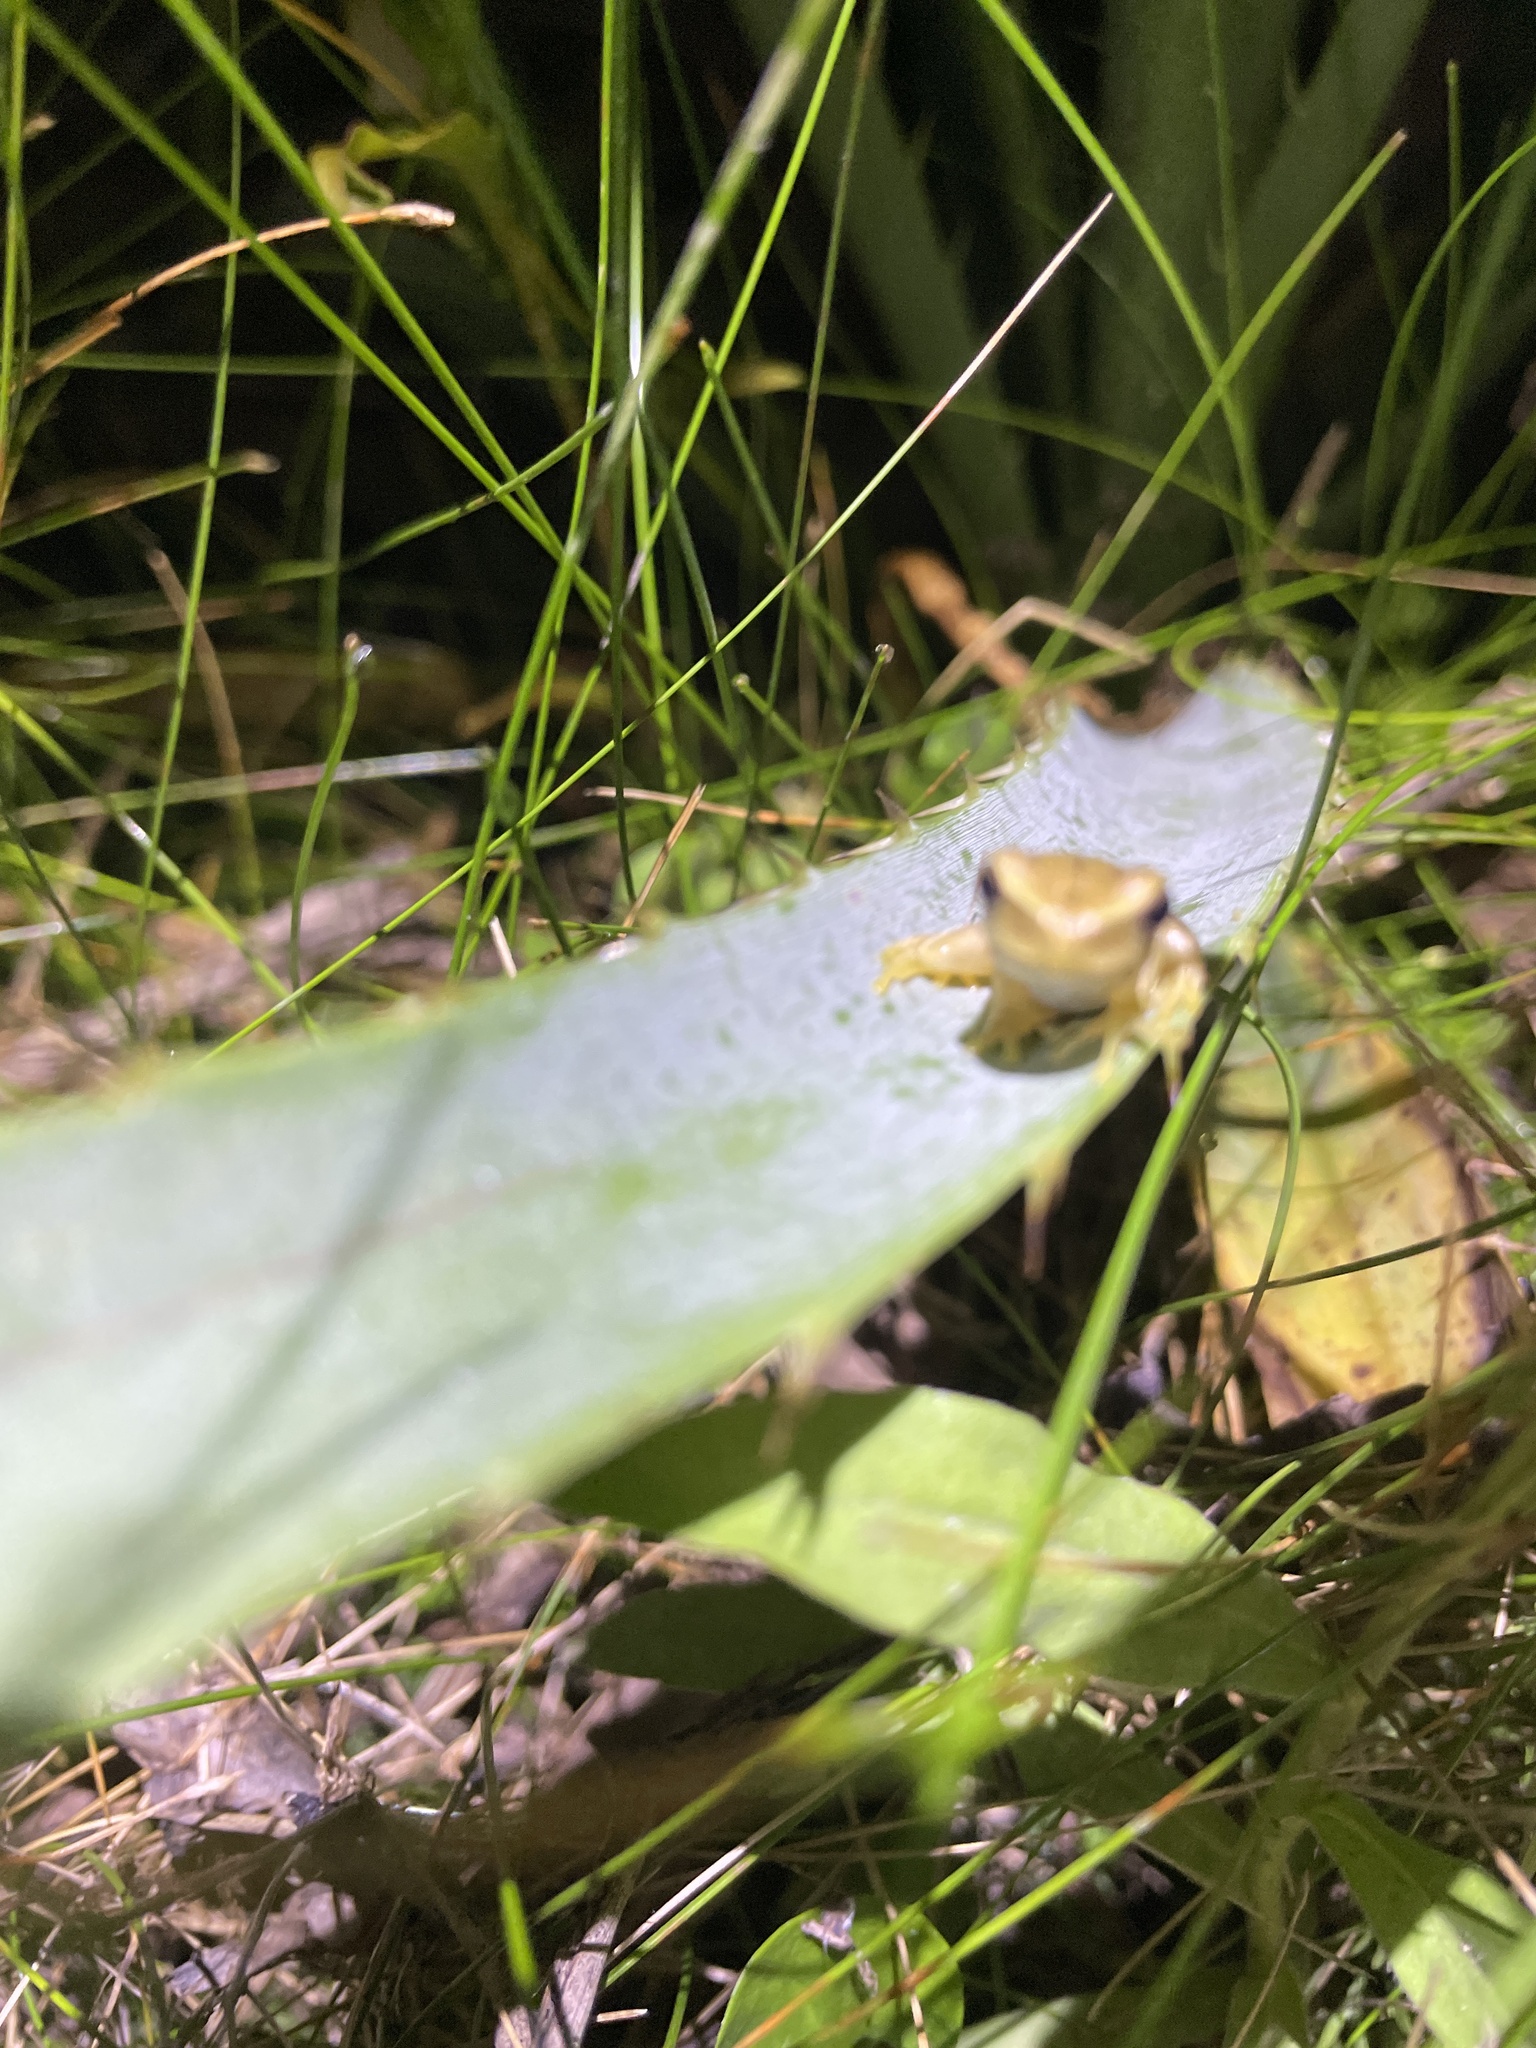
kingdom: Animalia
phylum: Chordata
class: Amphibia
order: Anura
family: Hylidae
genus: Boana
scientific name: Boana pulchella
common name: Montevideo treefrog
